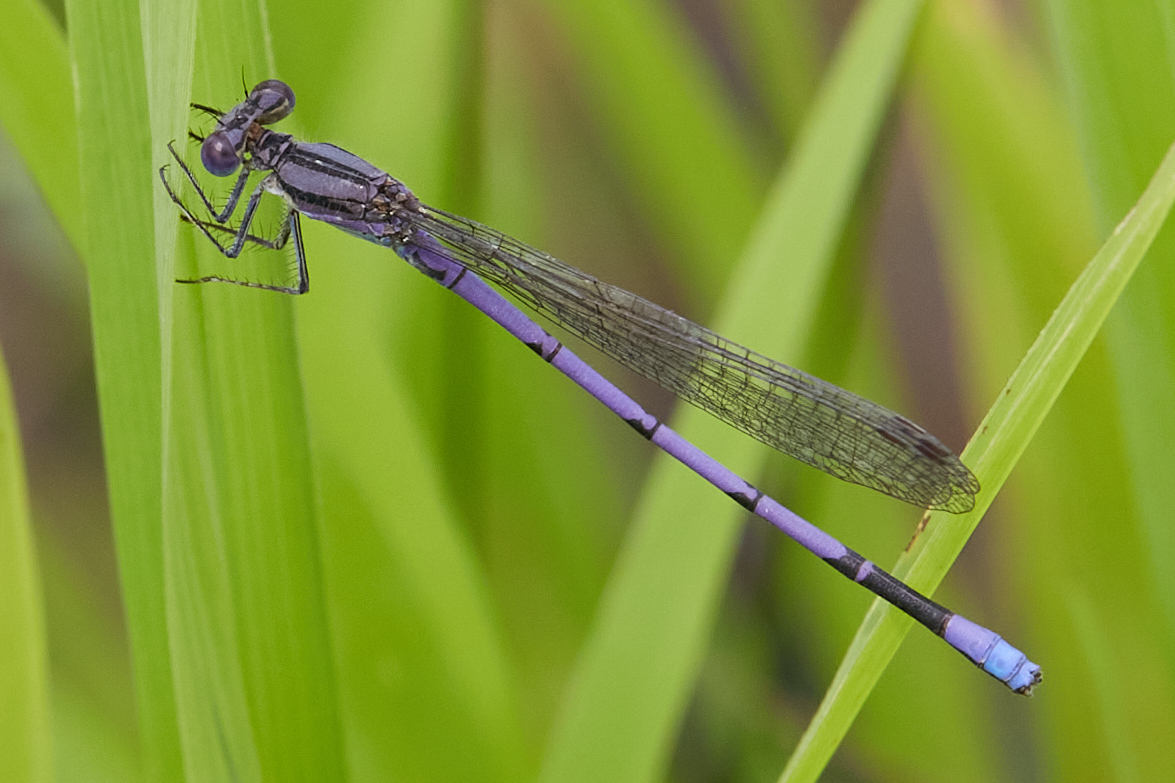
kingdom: Animalia
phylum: Arthropoda
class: Insecta
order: Odonata
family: Coenagrionidae
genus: Argia
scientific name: Argia fumipennis
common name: Variable dancer
